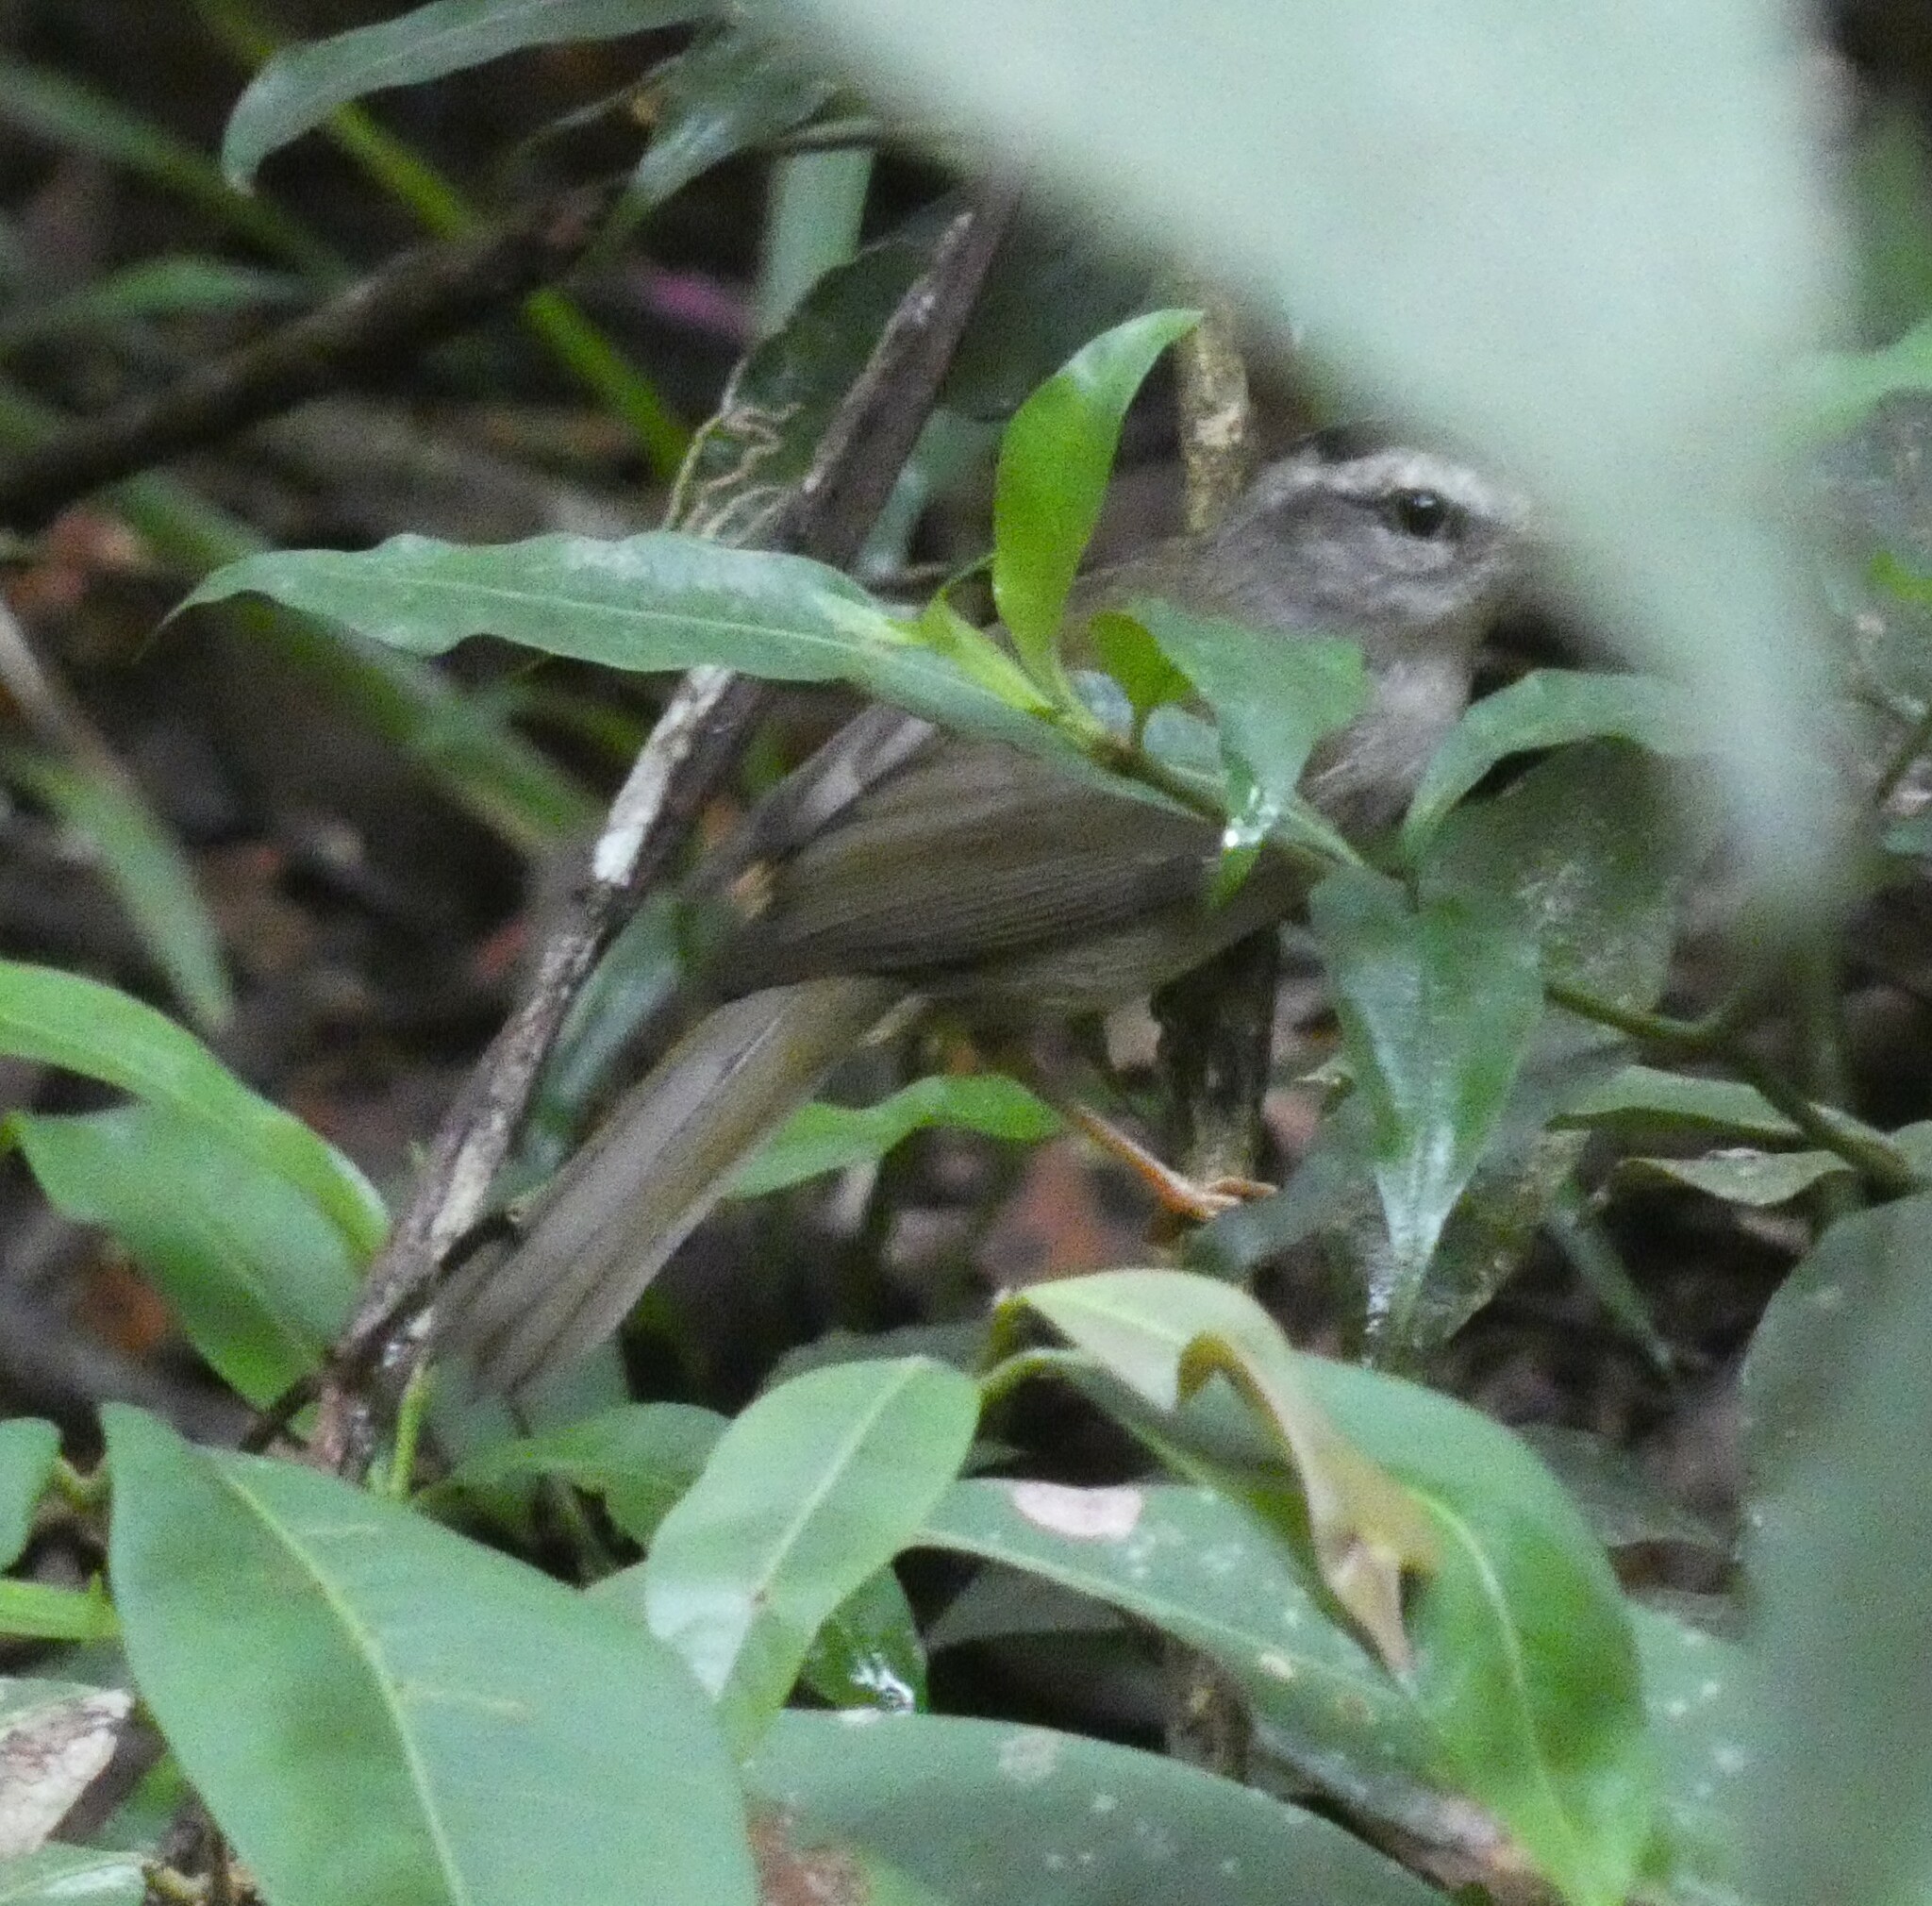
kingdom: Animalia
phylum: Chordata
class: Aves
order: Passeriformes
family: Parulidae
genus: Basileuterus
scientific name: Basileuterus culicivorus
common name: Golden-crowned warbler
